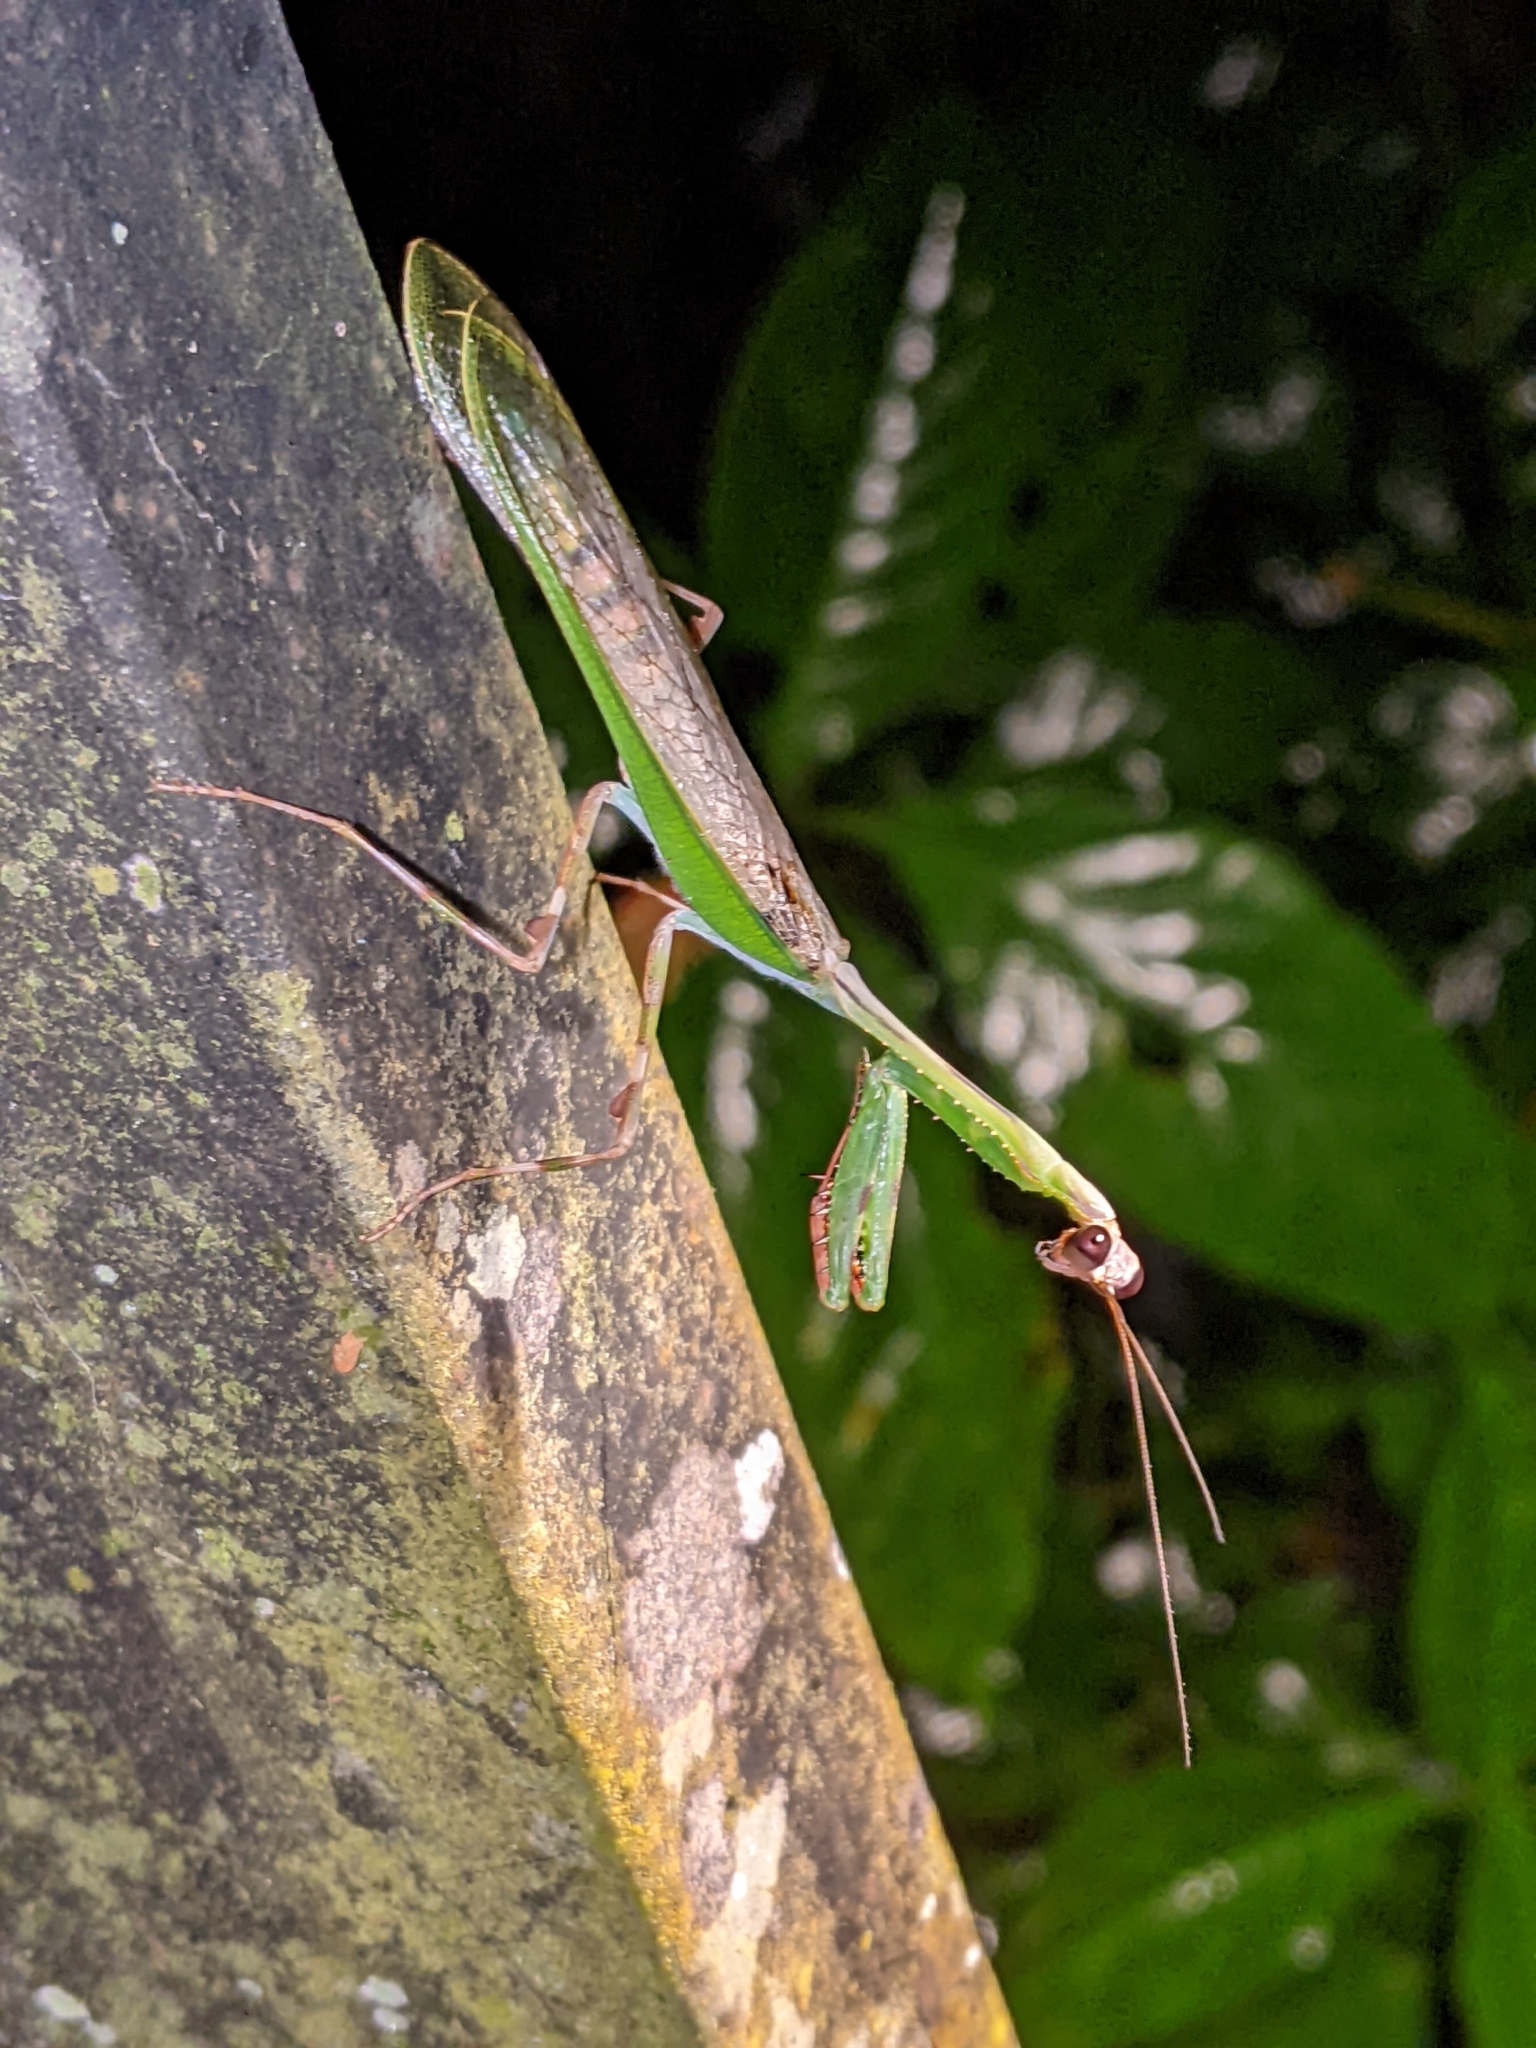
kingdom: Animalia
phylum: Arthropoda
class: Insecta
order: Mantodea
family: Mantidae
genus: Chopardiella
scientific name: Chopardiella poulaini
